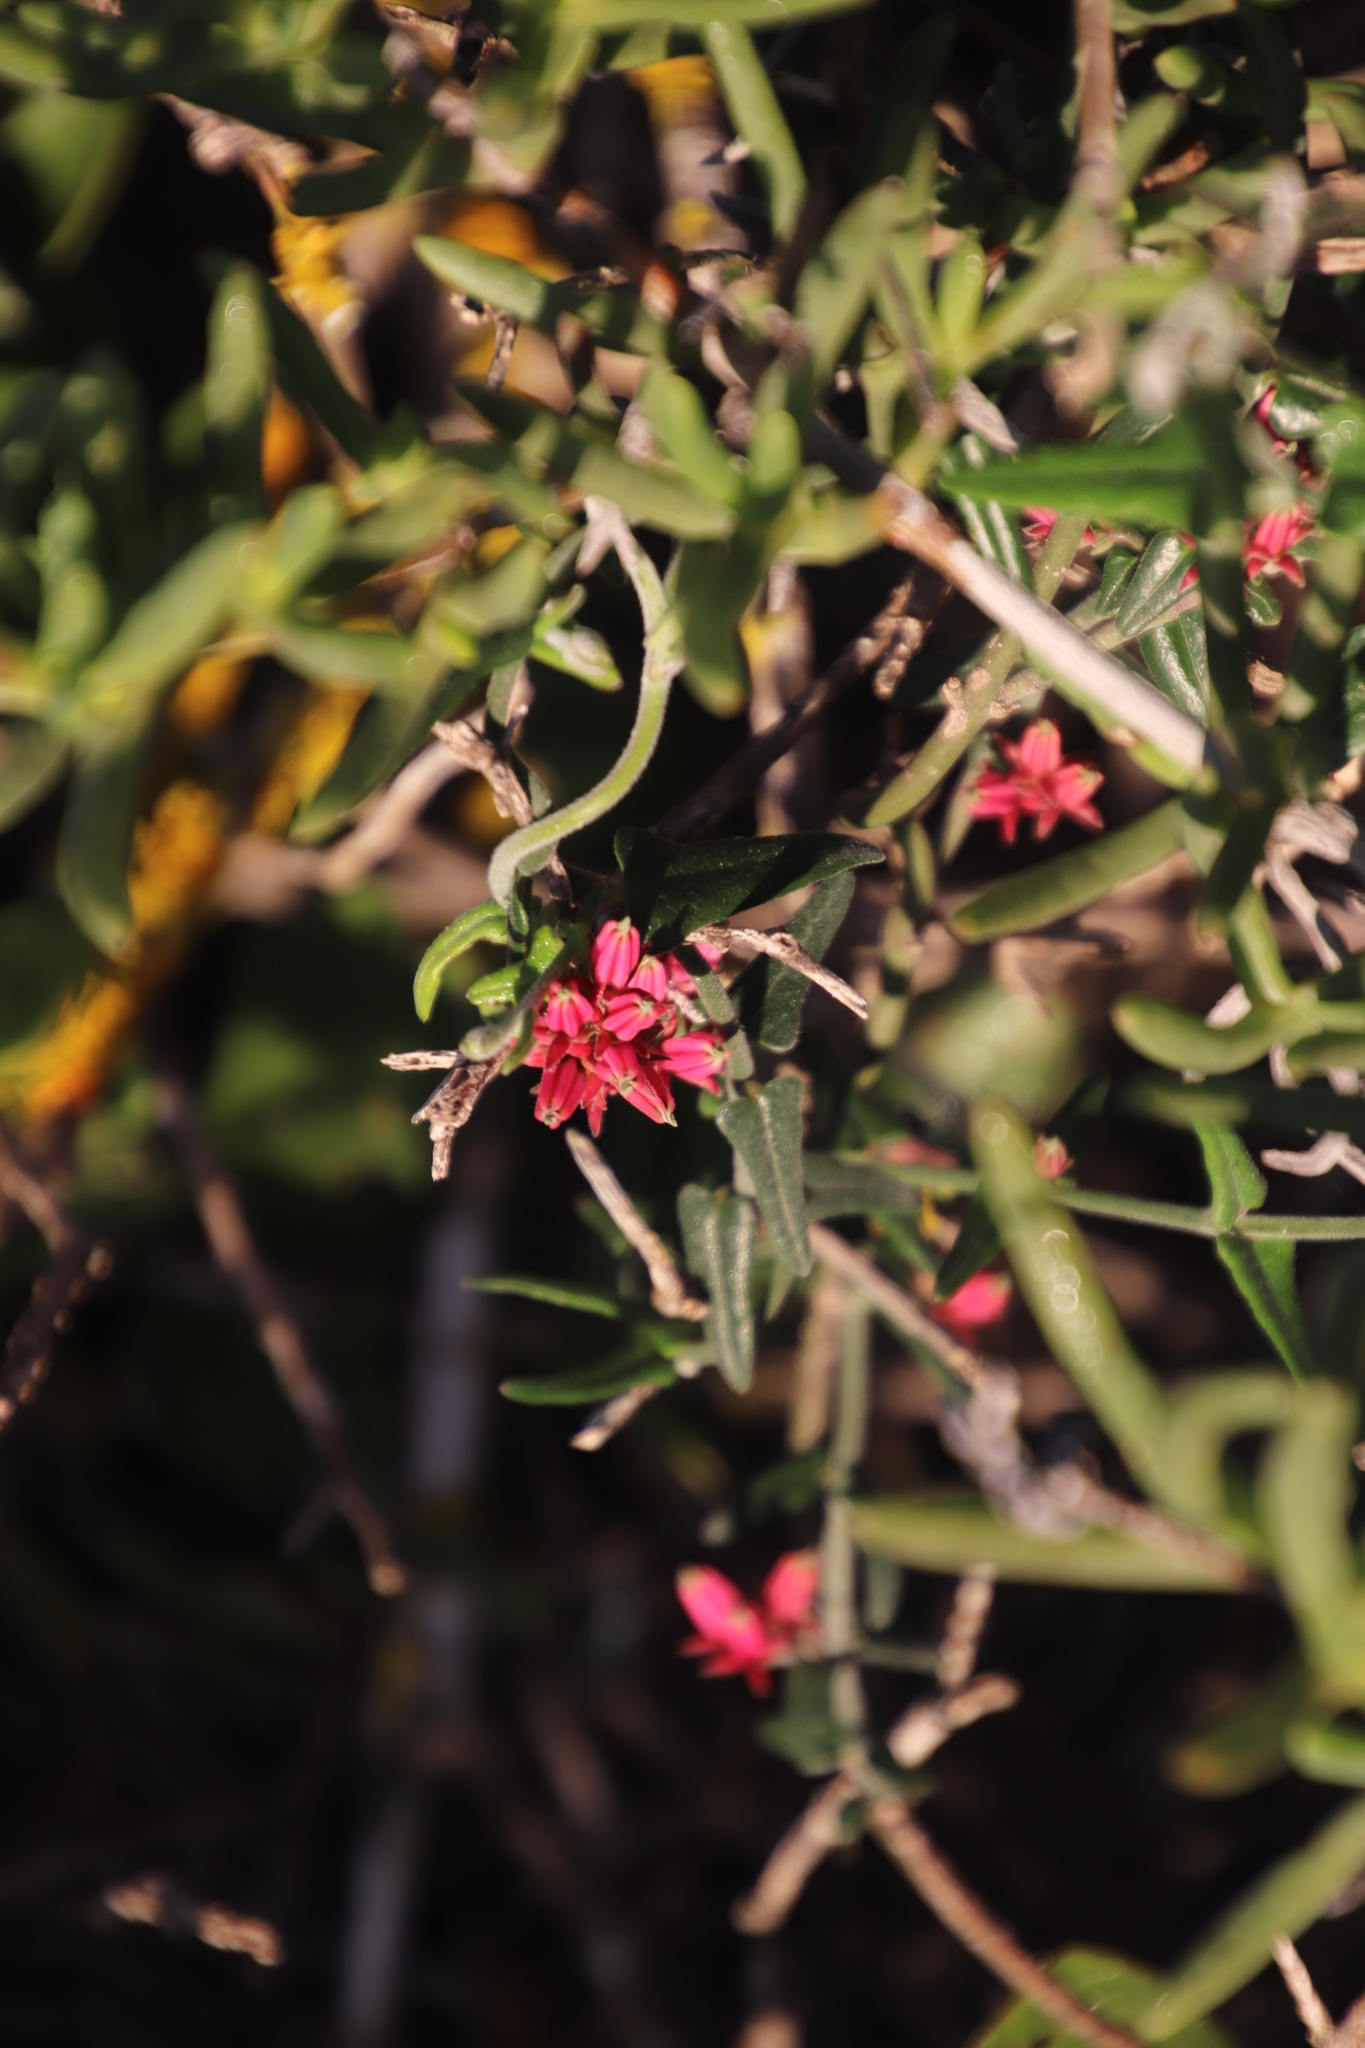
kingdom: Plantae
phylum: Tracheophyta
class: Magnoliopsida
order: Gentianales
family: Apocynaceae
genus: Microloma
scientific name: Microloma sagittatum
